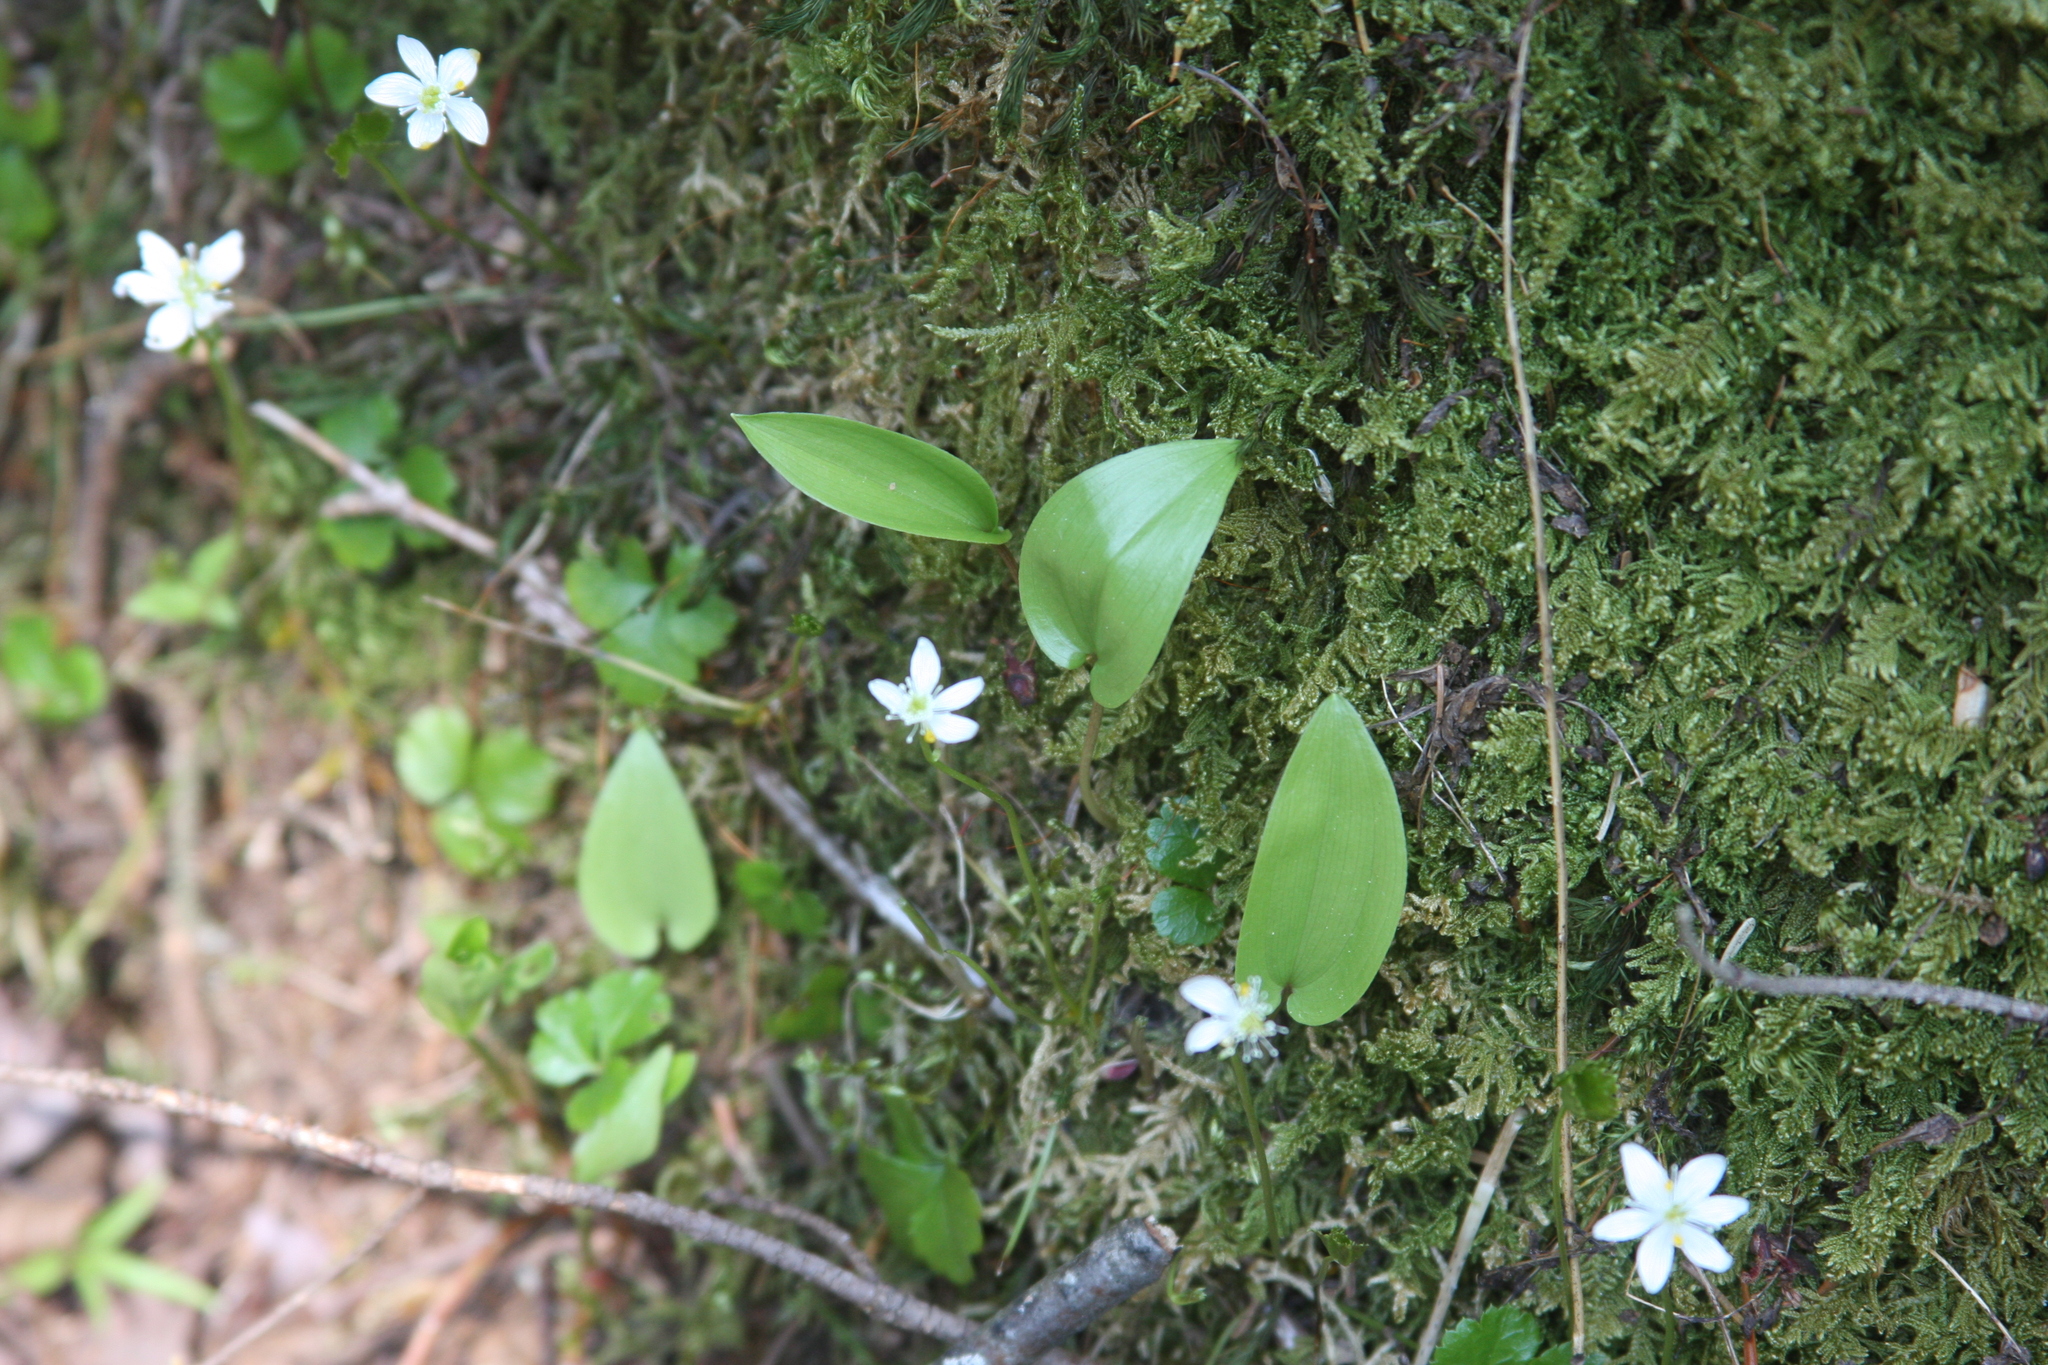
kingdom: Plantae
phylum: Tracheophyta
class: Magnoliopsida
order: Ranunculales
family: Ranunculaceae
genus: Coptis
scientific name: Coptis trifolia
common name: Canker-root
